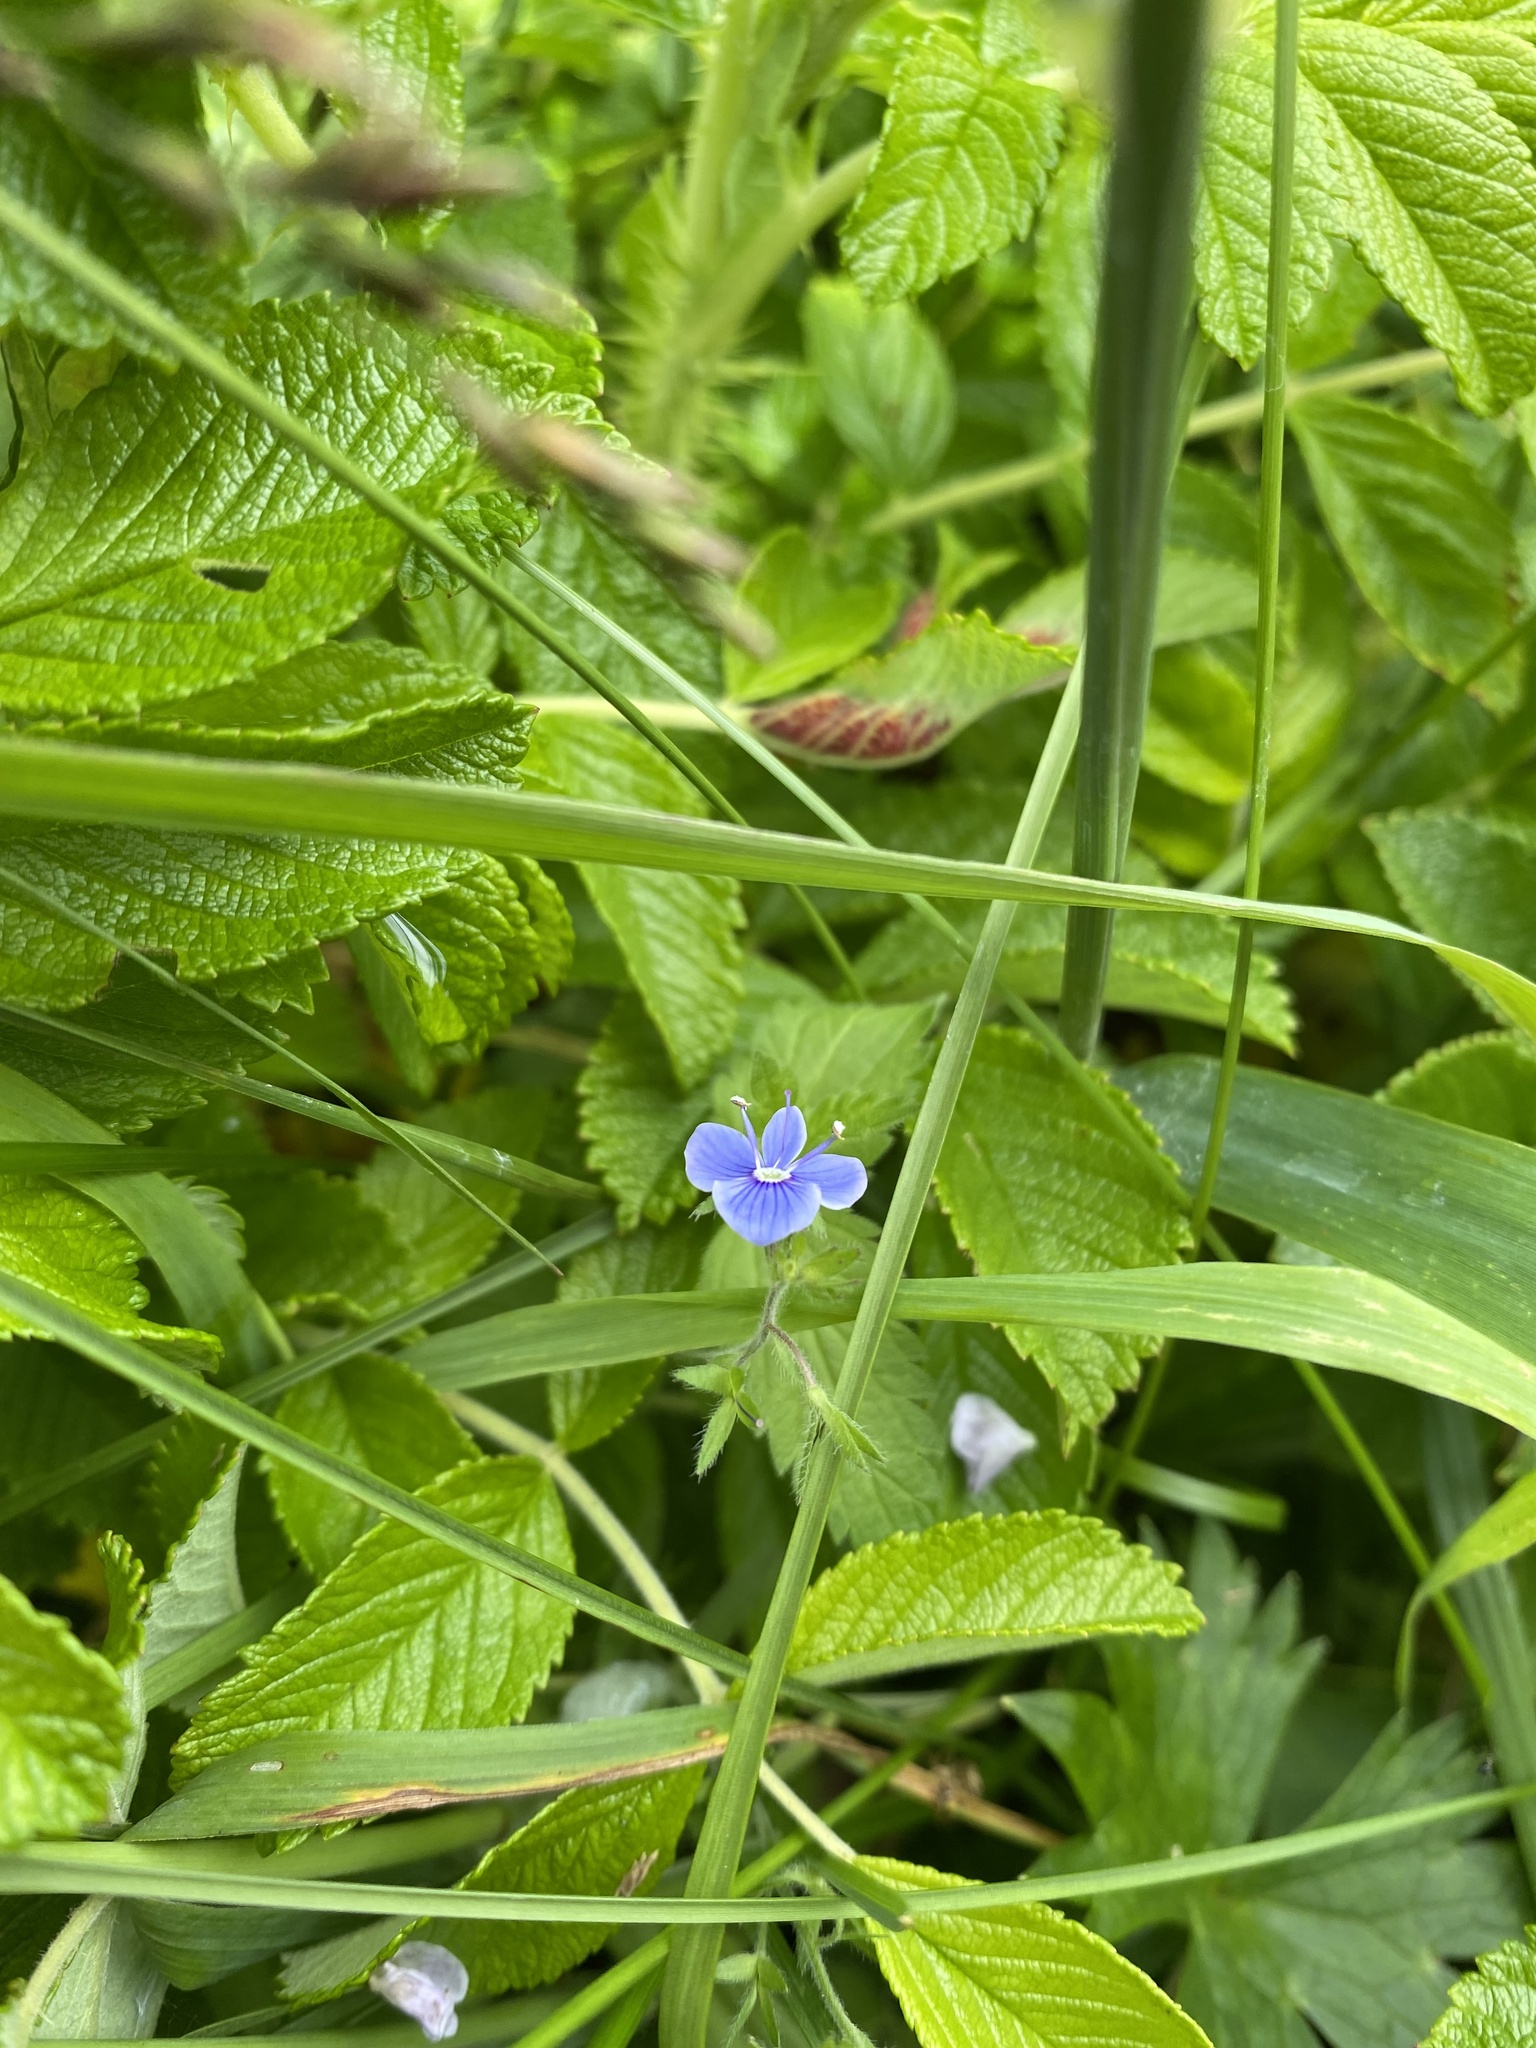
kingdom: Plantae
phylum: Tracheophyta
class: Magnoliopsida
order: Lamiales
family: Plantaginaceae
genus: Veronica
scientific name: Veronica chamaedrys
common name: Germander speedwell
